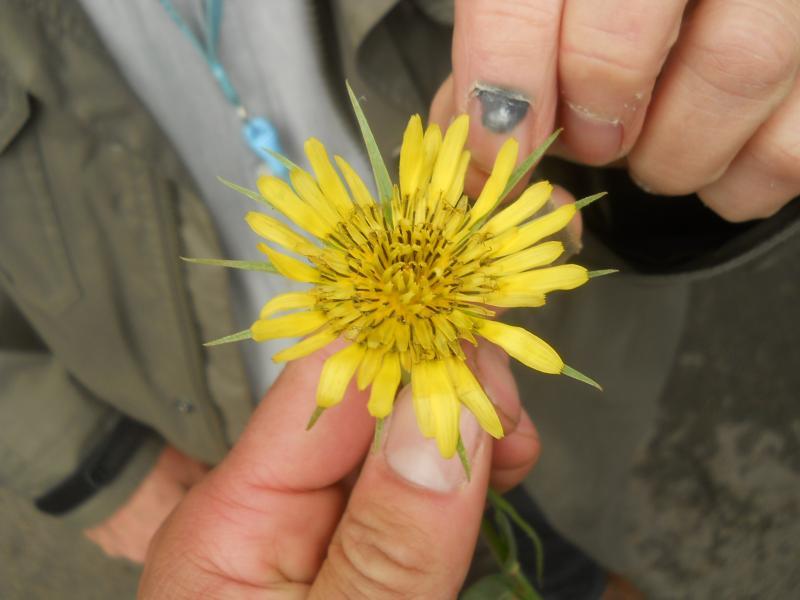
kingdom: Plantae
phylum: Tracheophyta
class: Magnoliopsida
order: Asterales
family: Asteraceae
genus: Tragopogon
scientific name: Tragopogon pratensis
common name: Goat's-beard
